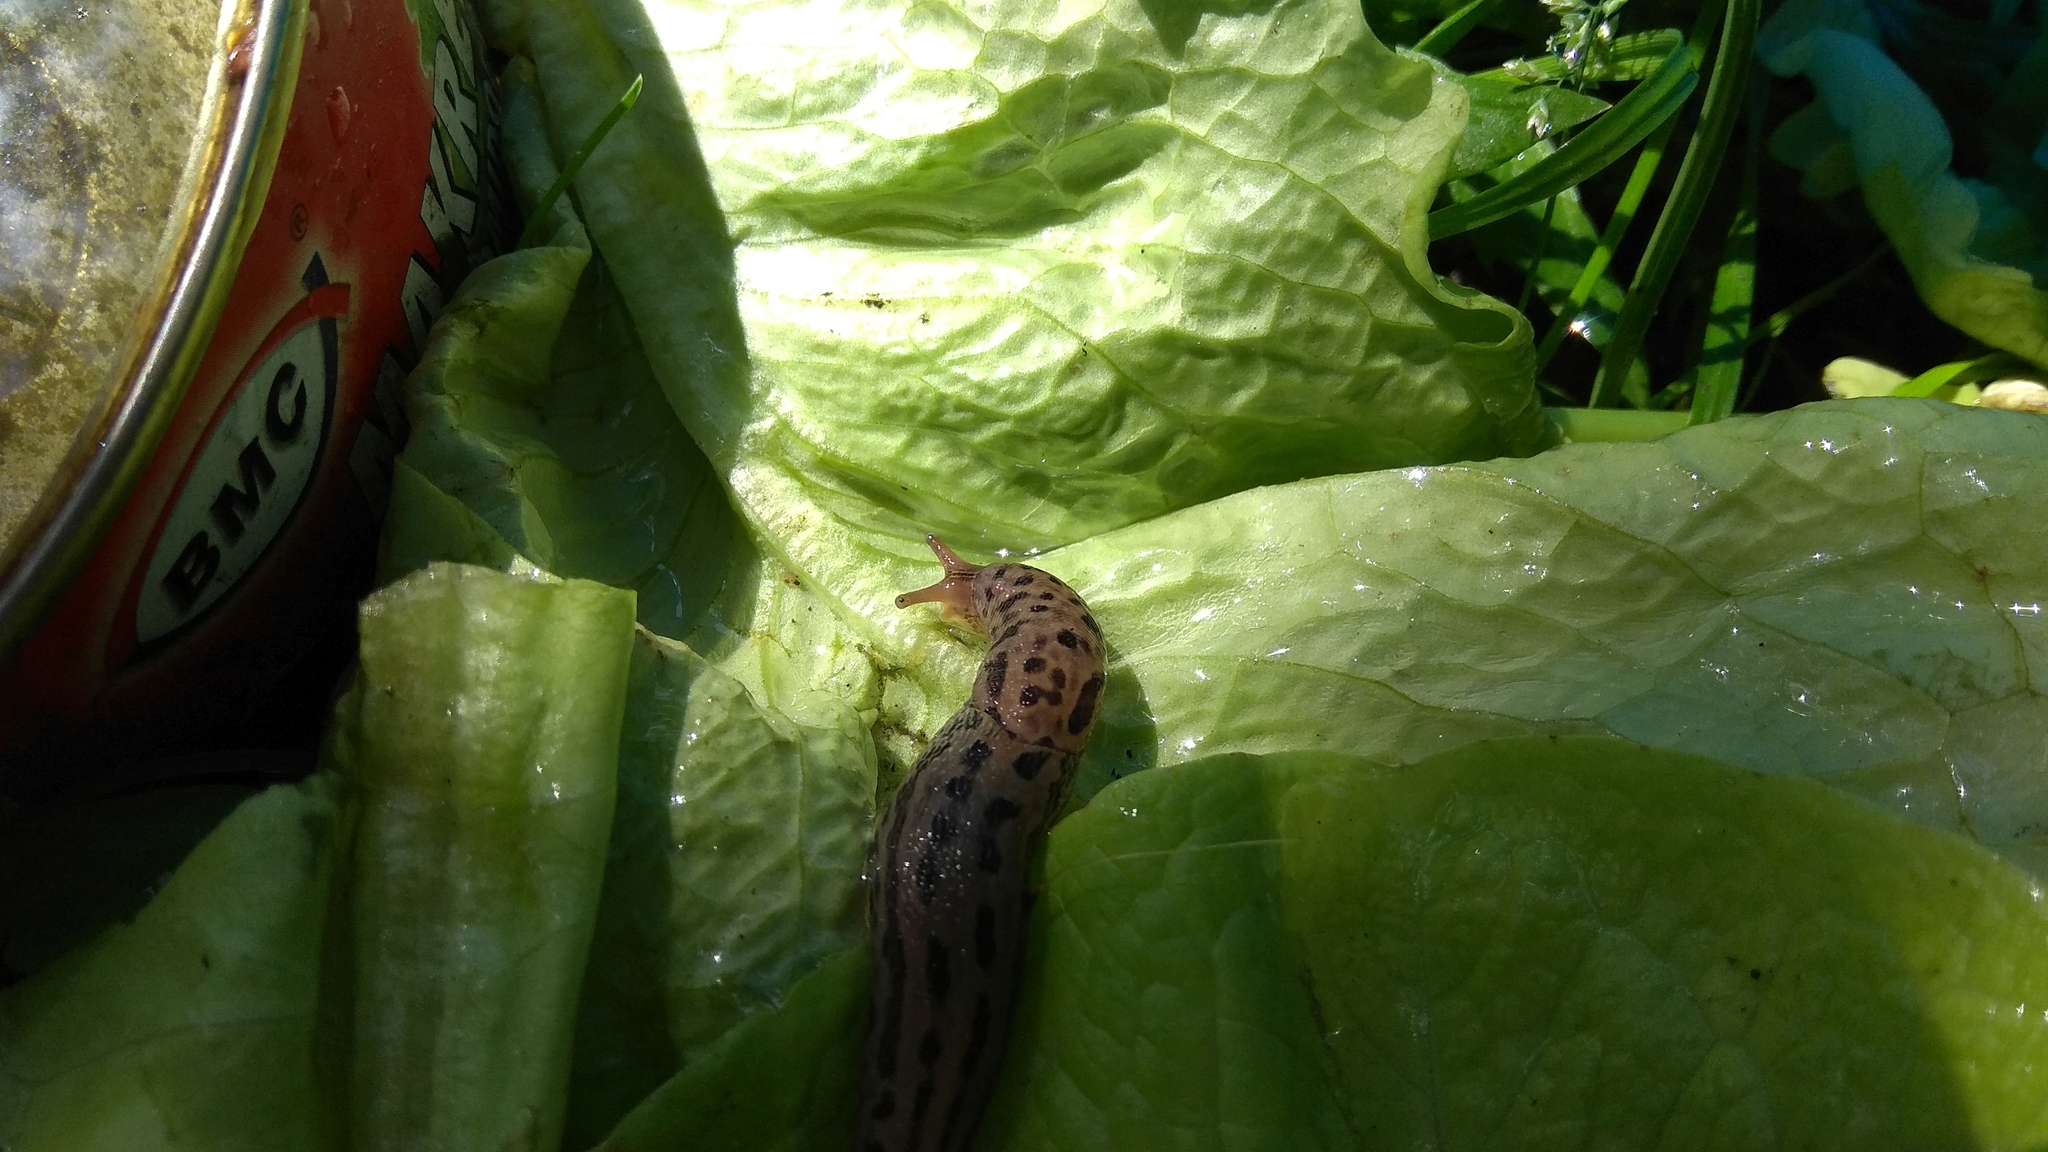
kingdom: Animalia
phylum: Mollusca
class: Gastropoda
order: Stylommatophora
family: Limacidae
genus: Limax
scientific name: Limax maximus
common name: Great grey slug
